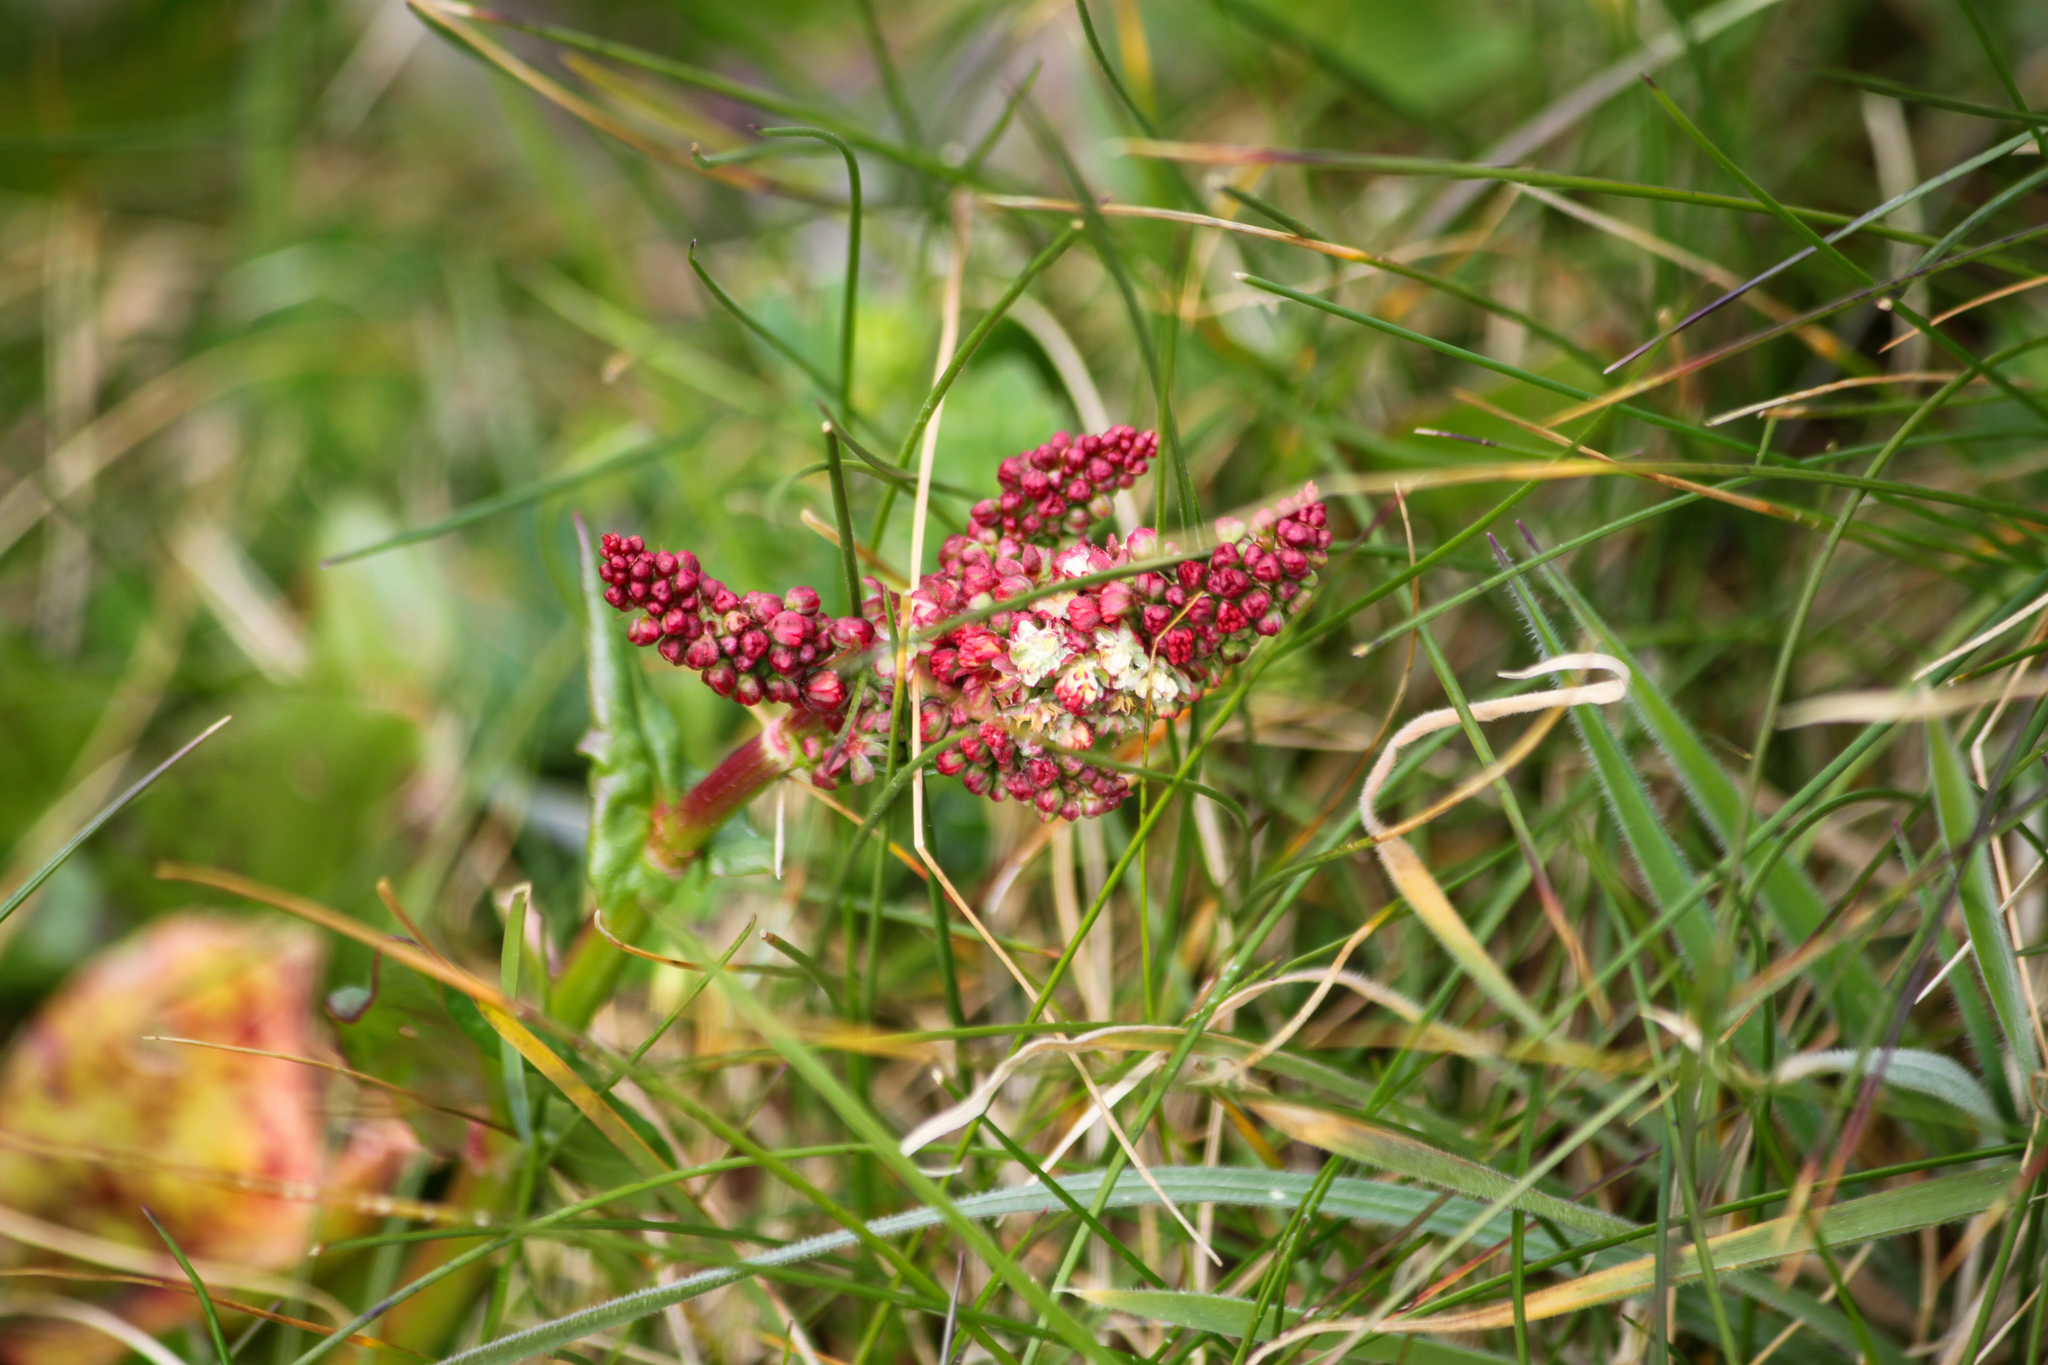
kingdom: Plantae
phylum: Tracheophyta
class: Magnoliopsida
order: Caryophyllales
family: Polygonaceae
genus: Rumex
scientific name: Rumex acetosa
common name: Garden sorrel
